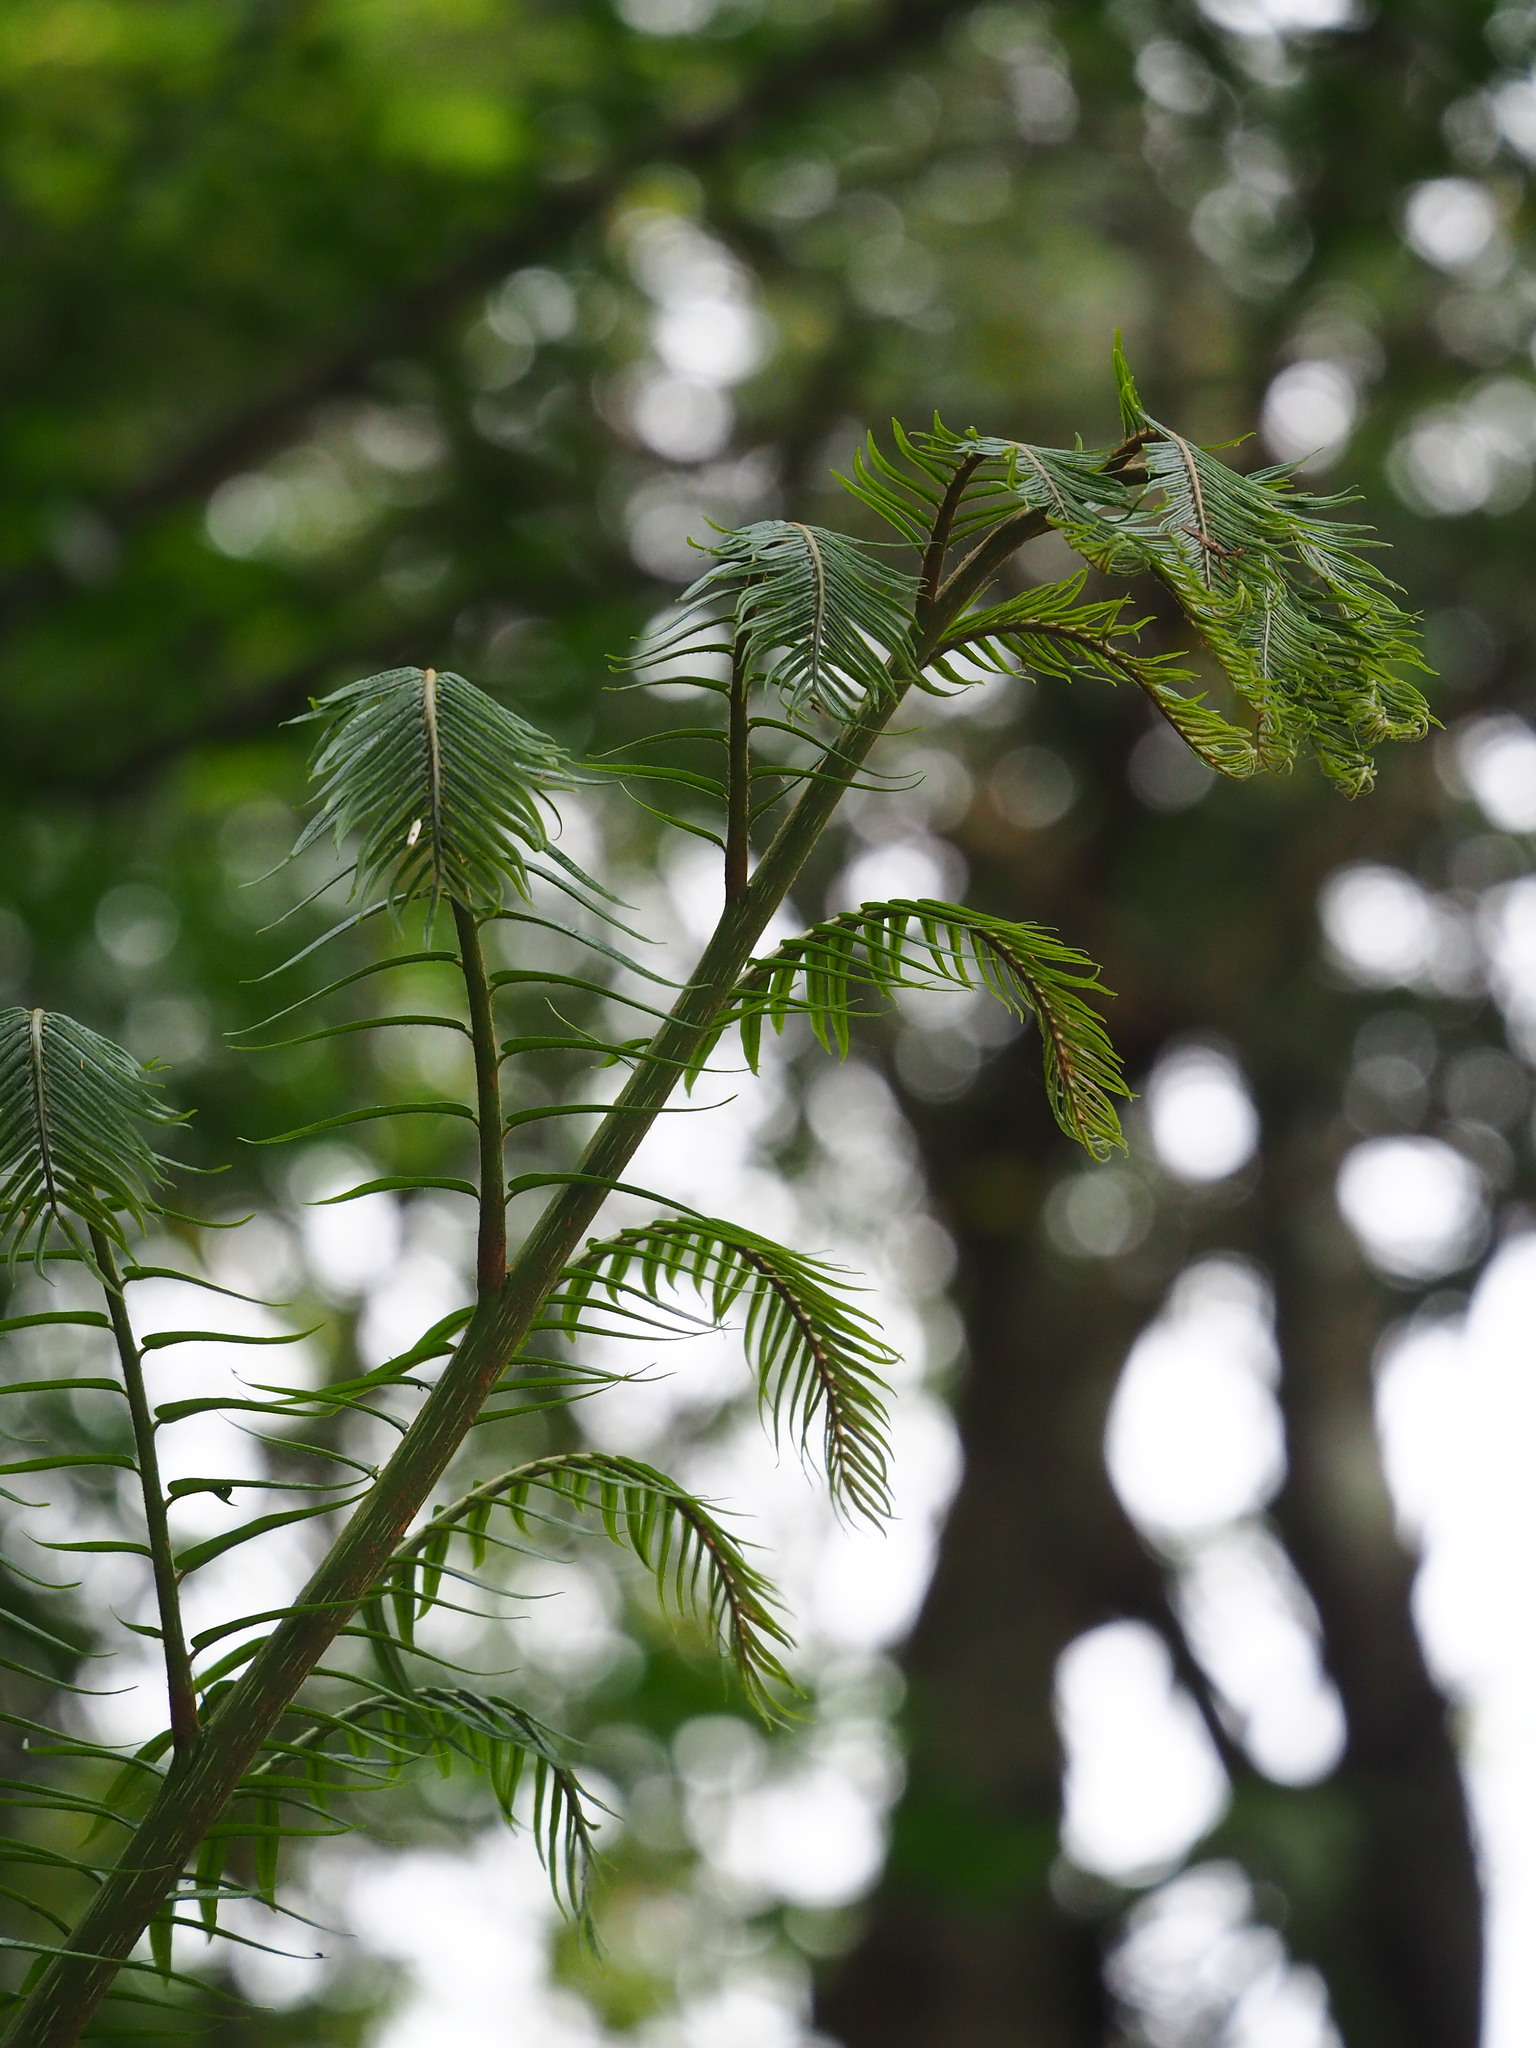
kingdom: Plantae
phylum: Tracheophyta
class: Polypodiopsida
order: Marattiales
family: Marattiaceae
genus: Angiopteris
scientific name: Angiopteris lygodiifolia
